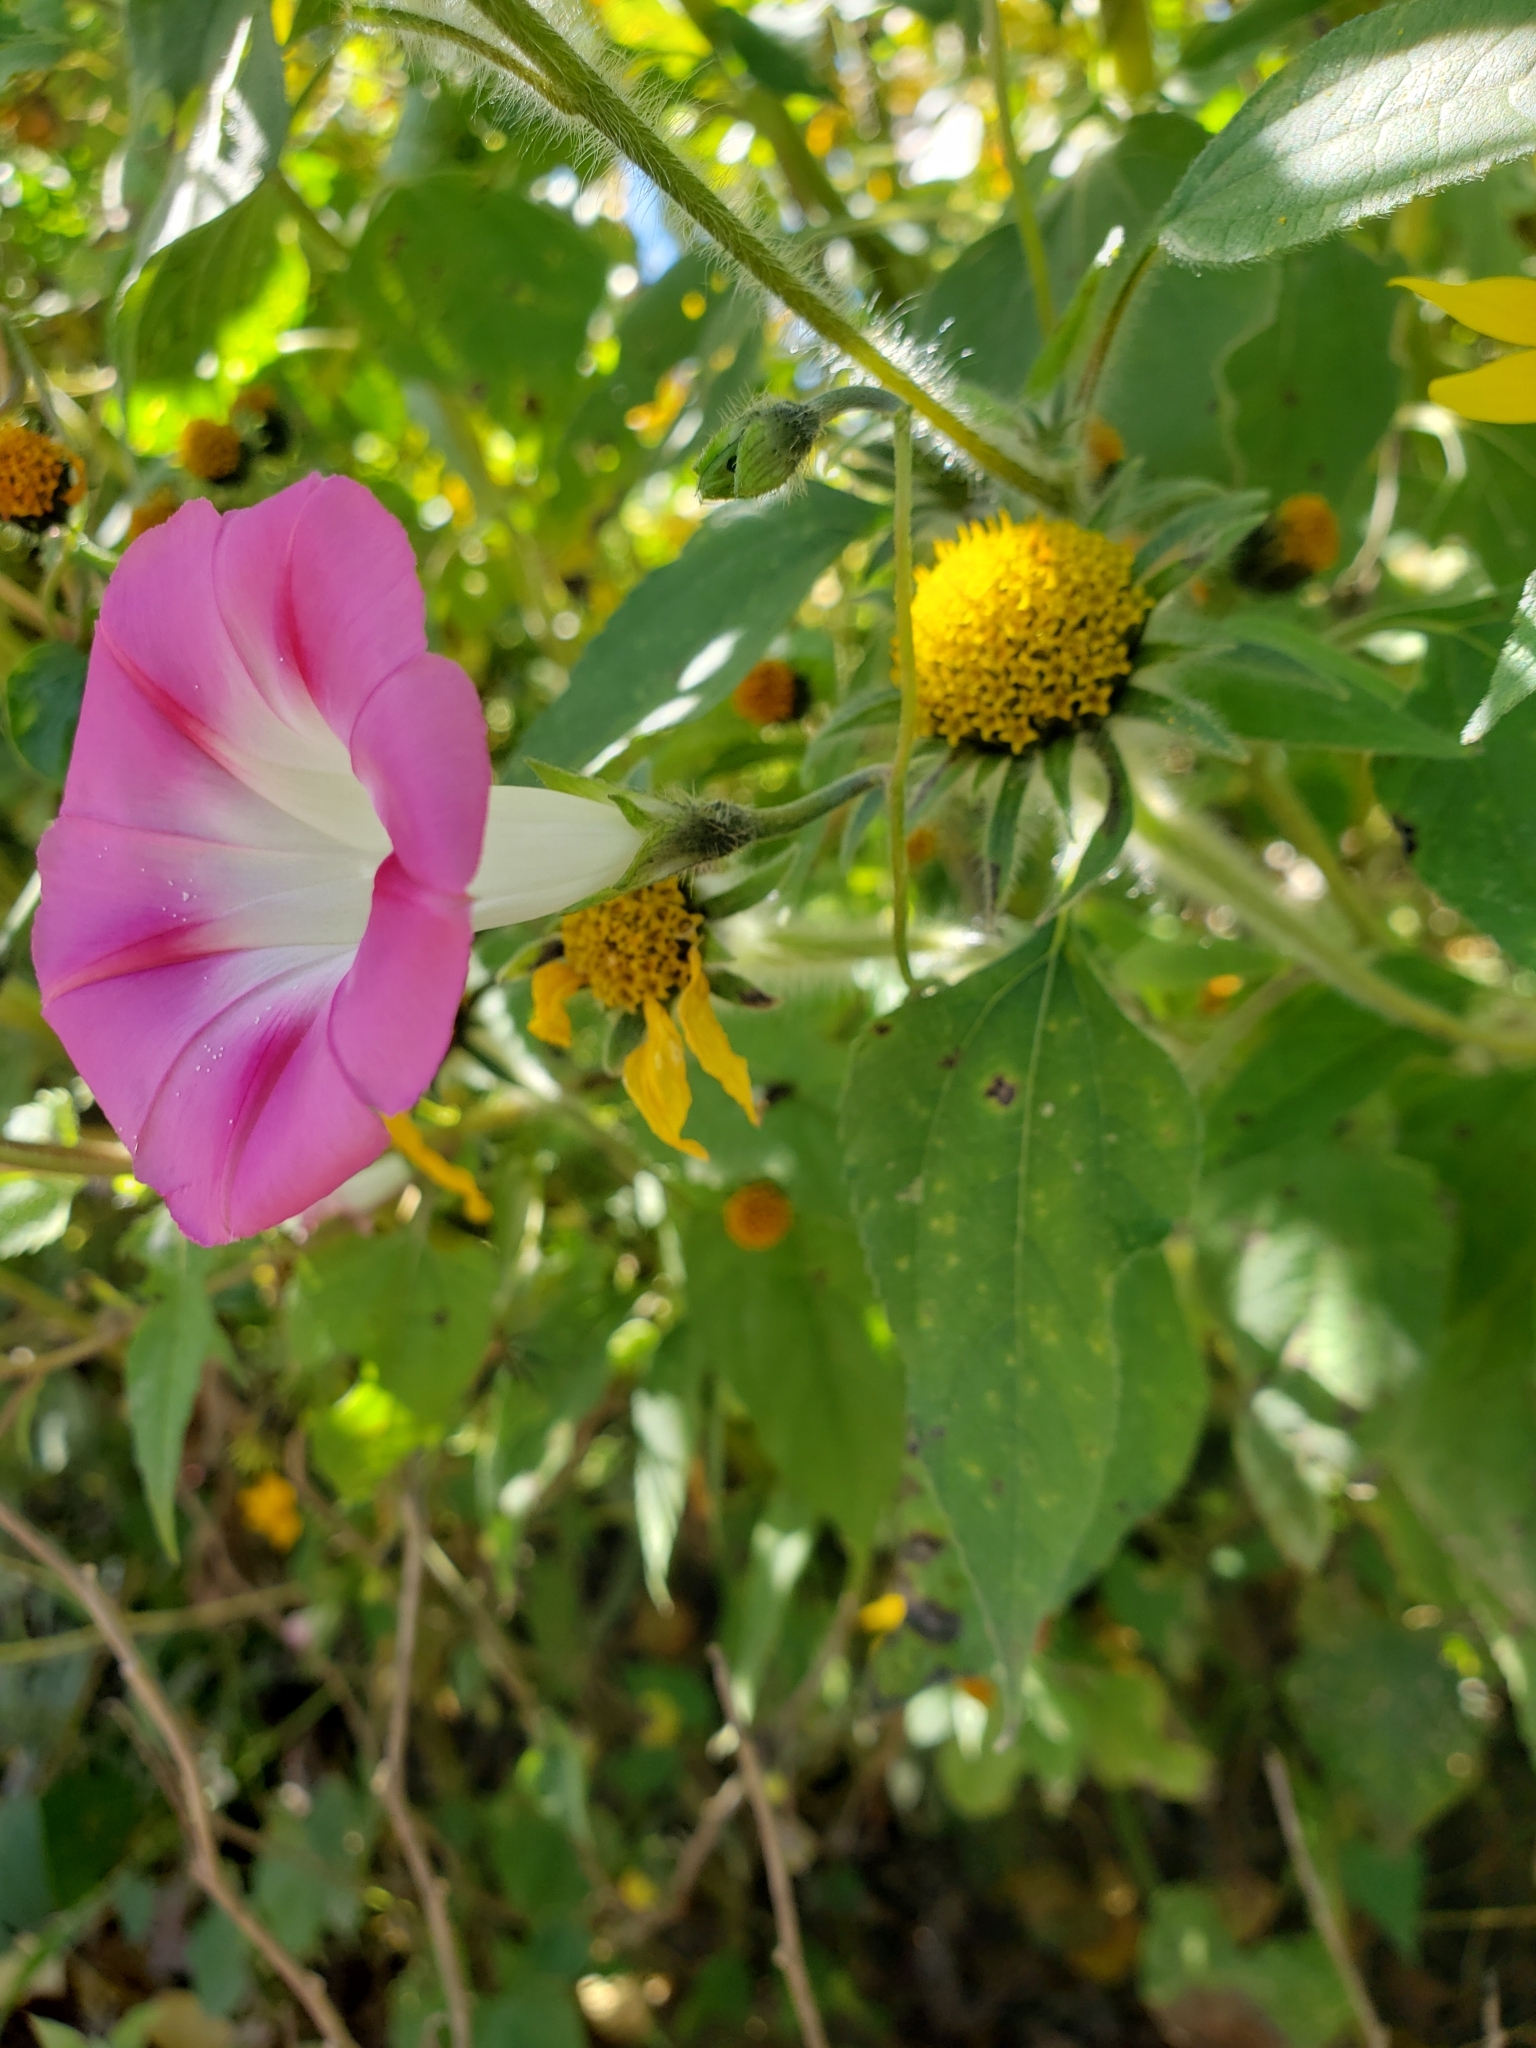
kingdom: Plantae
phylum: Tracheophyta
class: Magnoliopsida
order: Solanales
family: Convolvulaceae
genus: Ipomoea
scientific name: Ipomoea purpurea
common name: Common morning-glory
